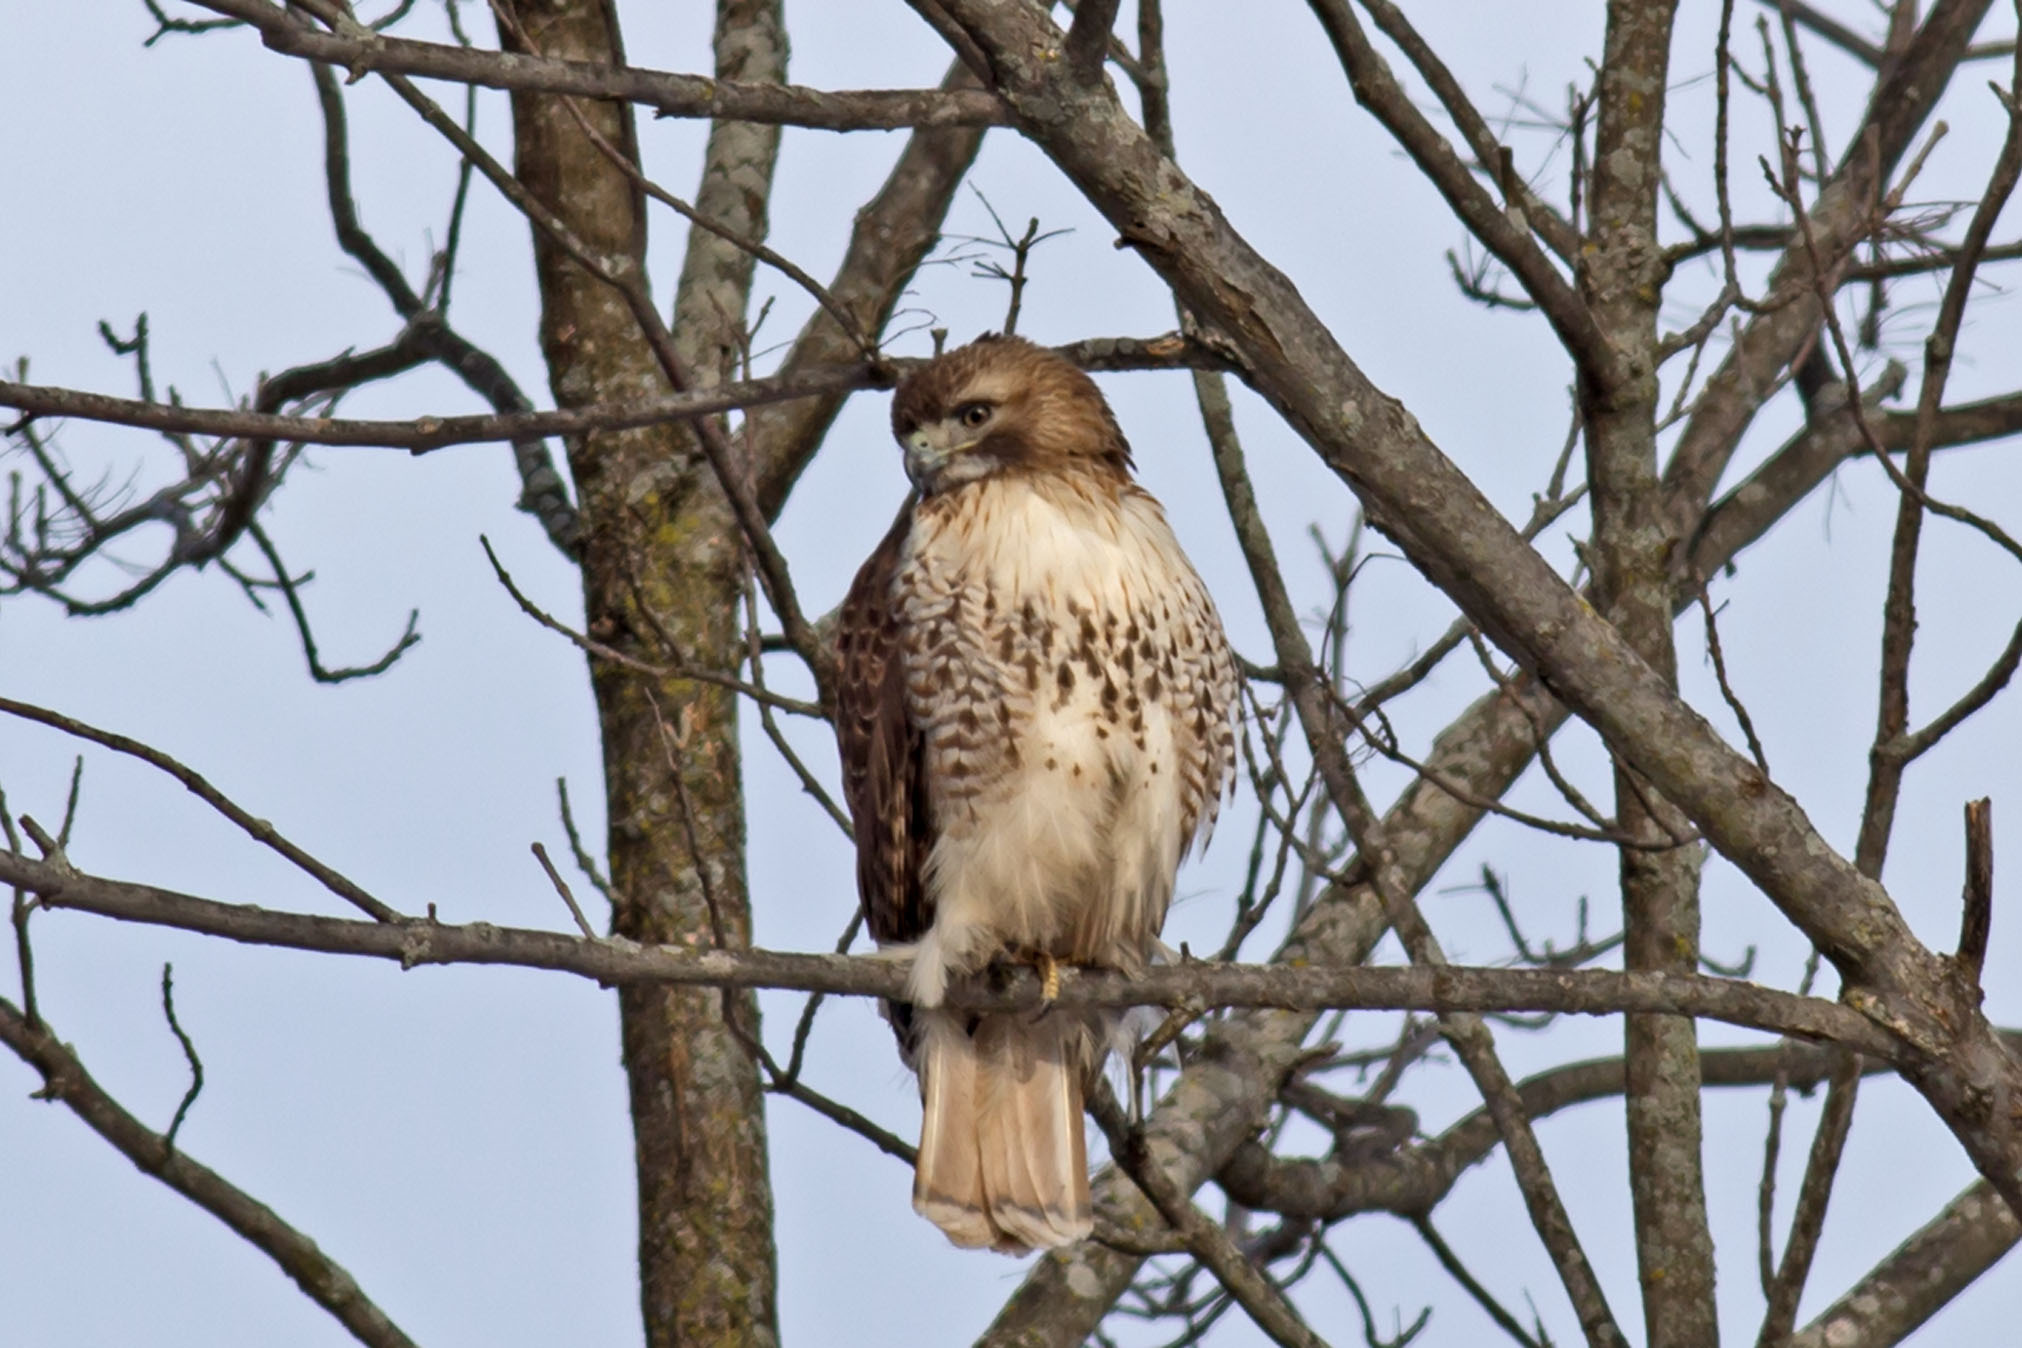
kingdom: Animalia
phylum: Chordata
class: Aves
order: Accipitriformes
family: Accipitridae
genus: Buteo
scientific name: Buteo jamaicensis
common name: Red-tailed hawk
